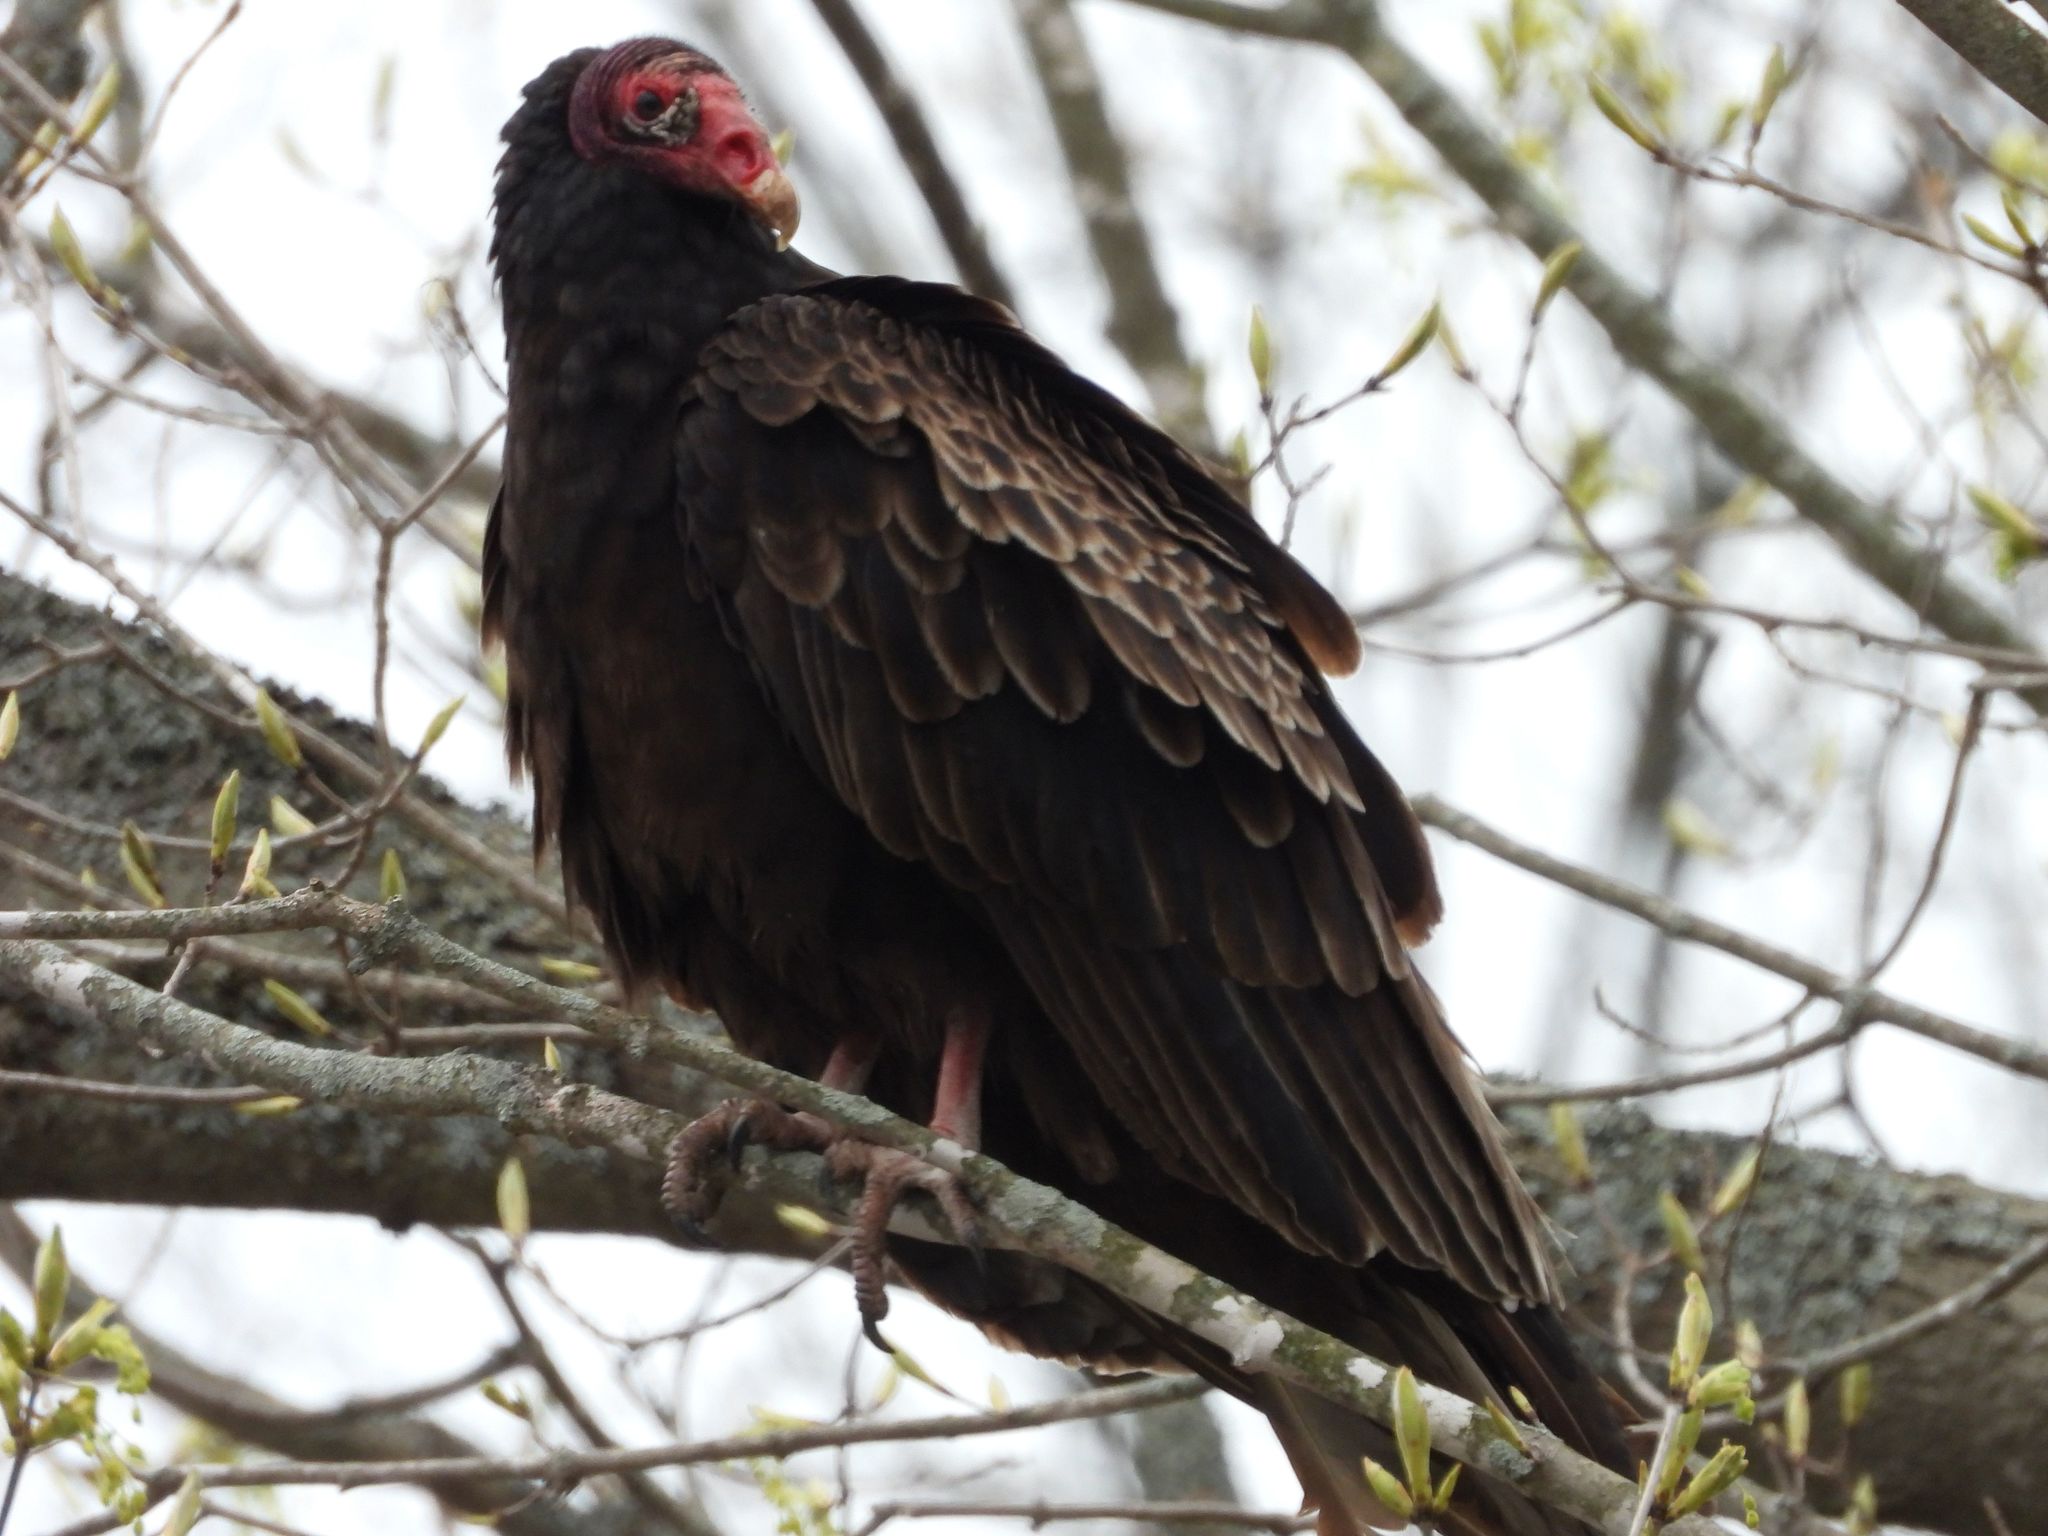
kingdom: Animalia
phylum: Chordata
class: Aves
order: Accipitriformes
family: Cathartidae
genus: Cathartes
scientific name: Cathartes aura
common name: Turkey vulture
